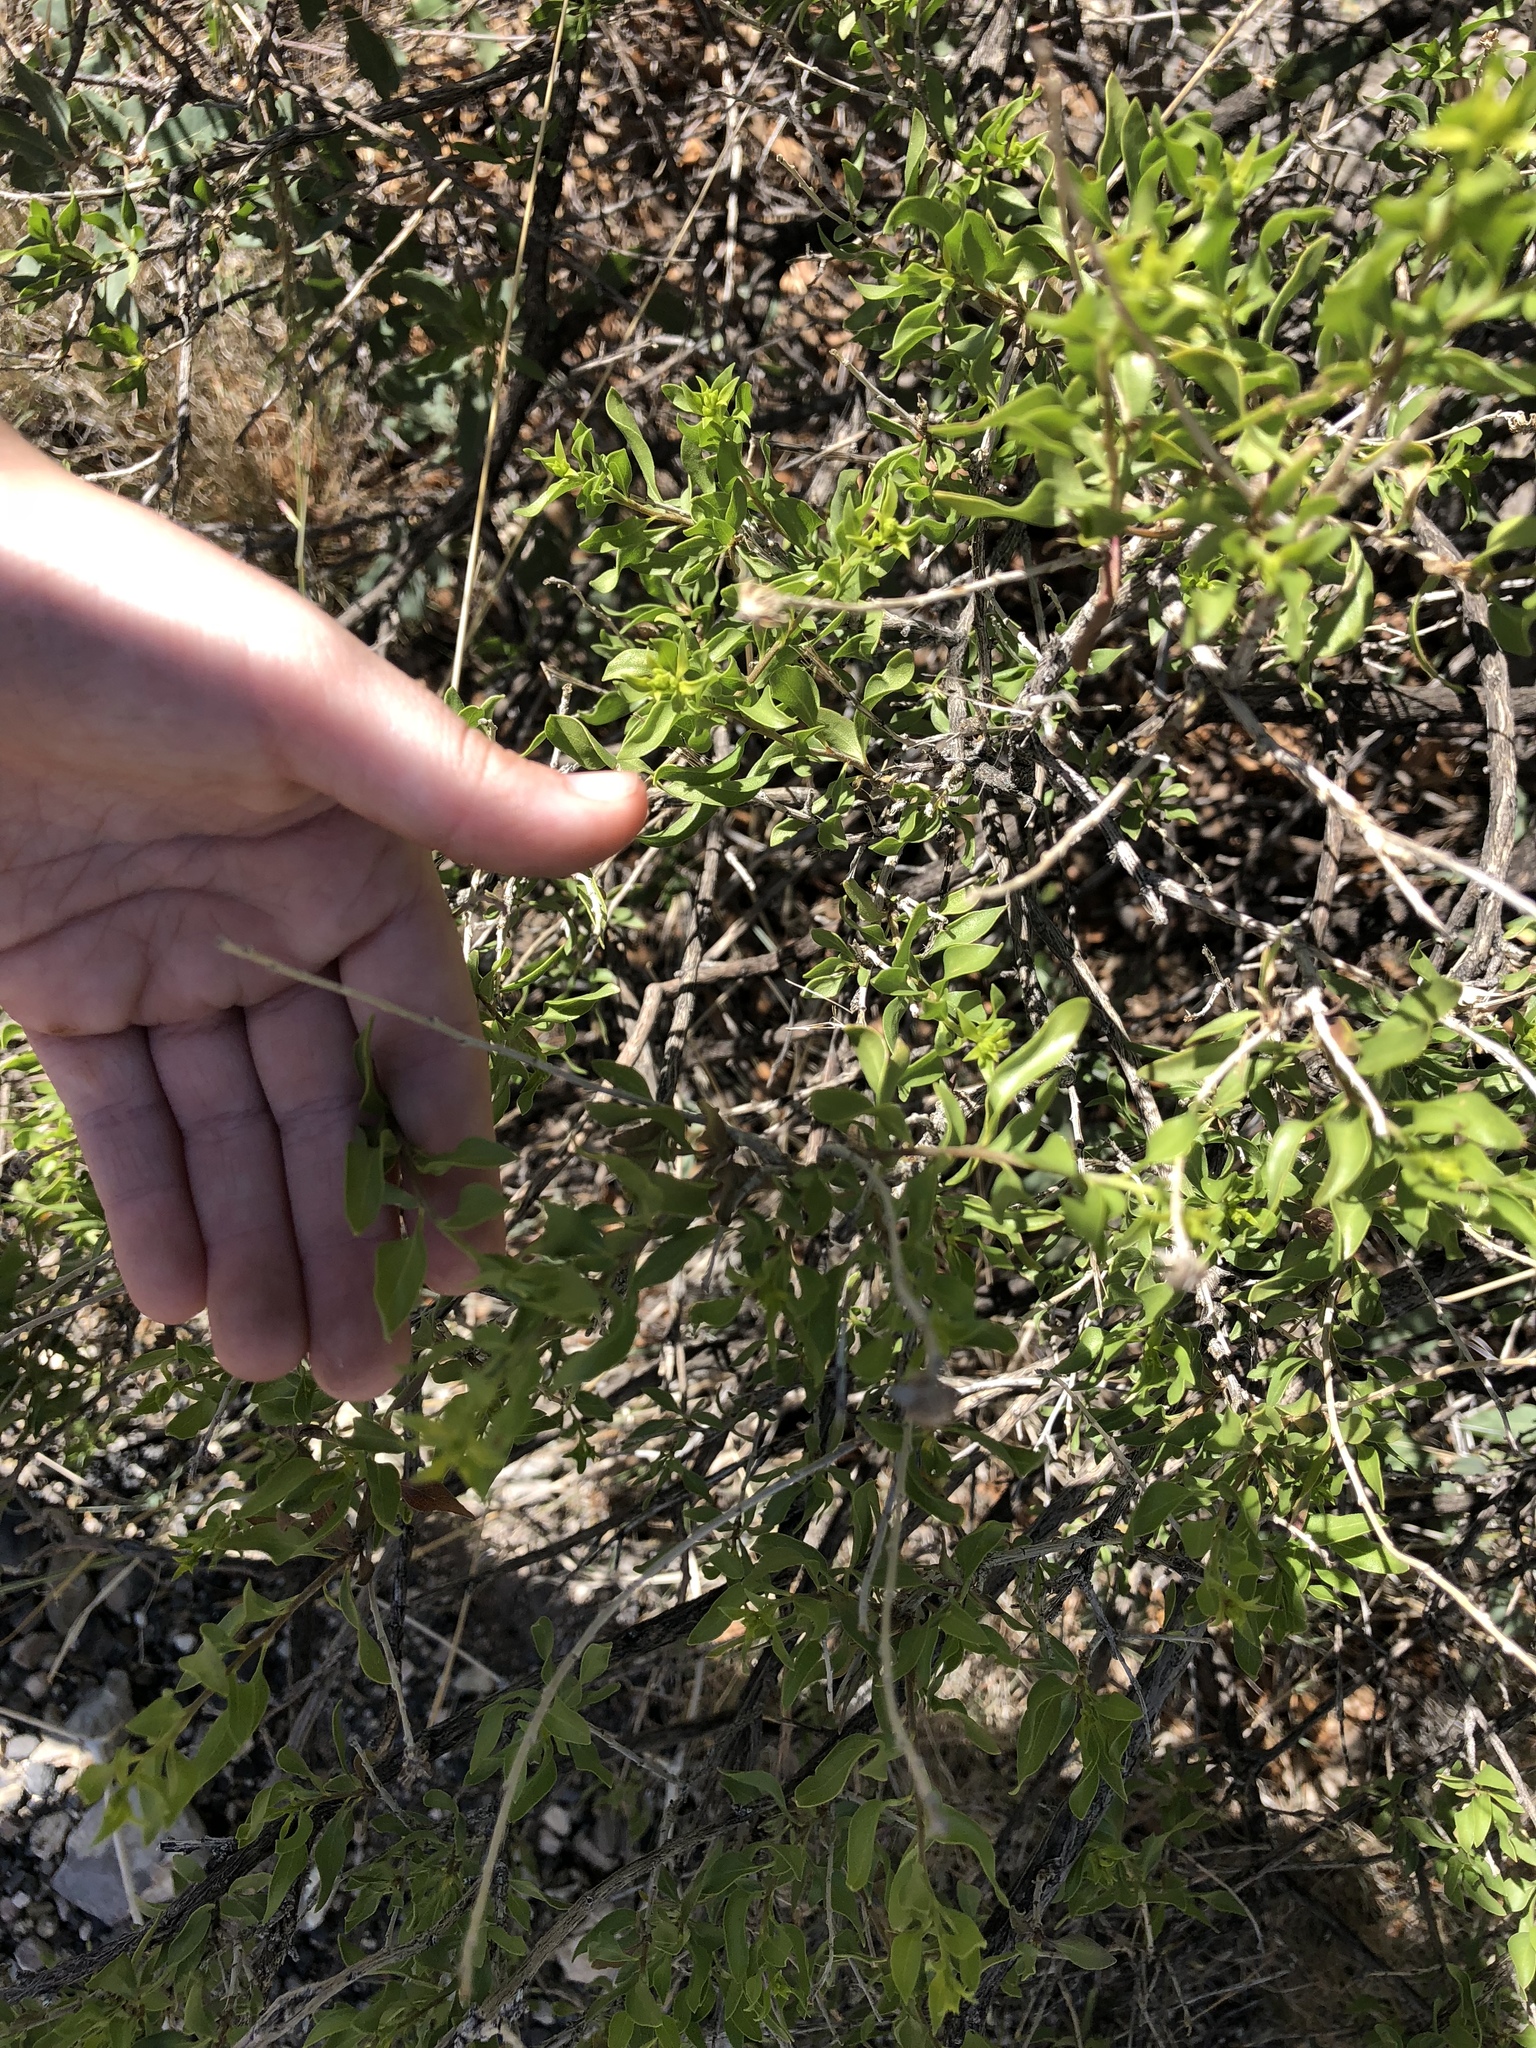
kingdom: Plantae
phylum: Tracheophyta
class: Magnoliopsida
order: Asterales
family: Asteraceae
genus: Flourensia
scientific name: Flourensia cernua
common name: Varnishbush
